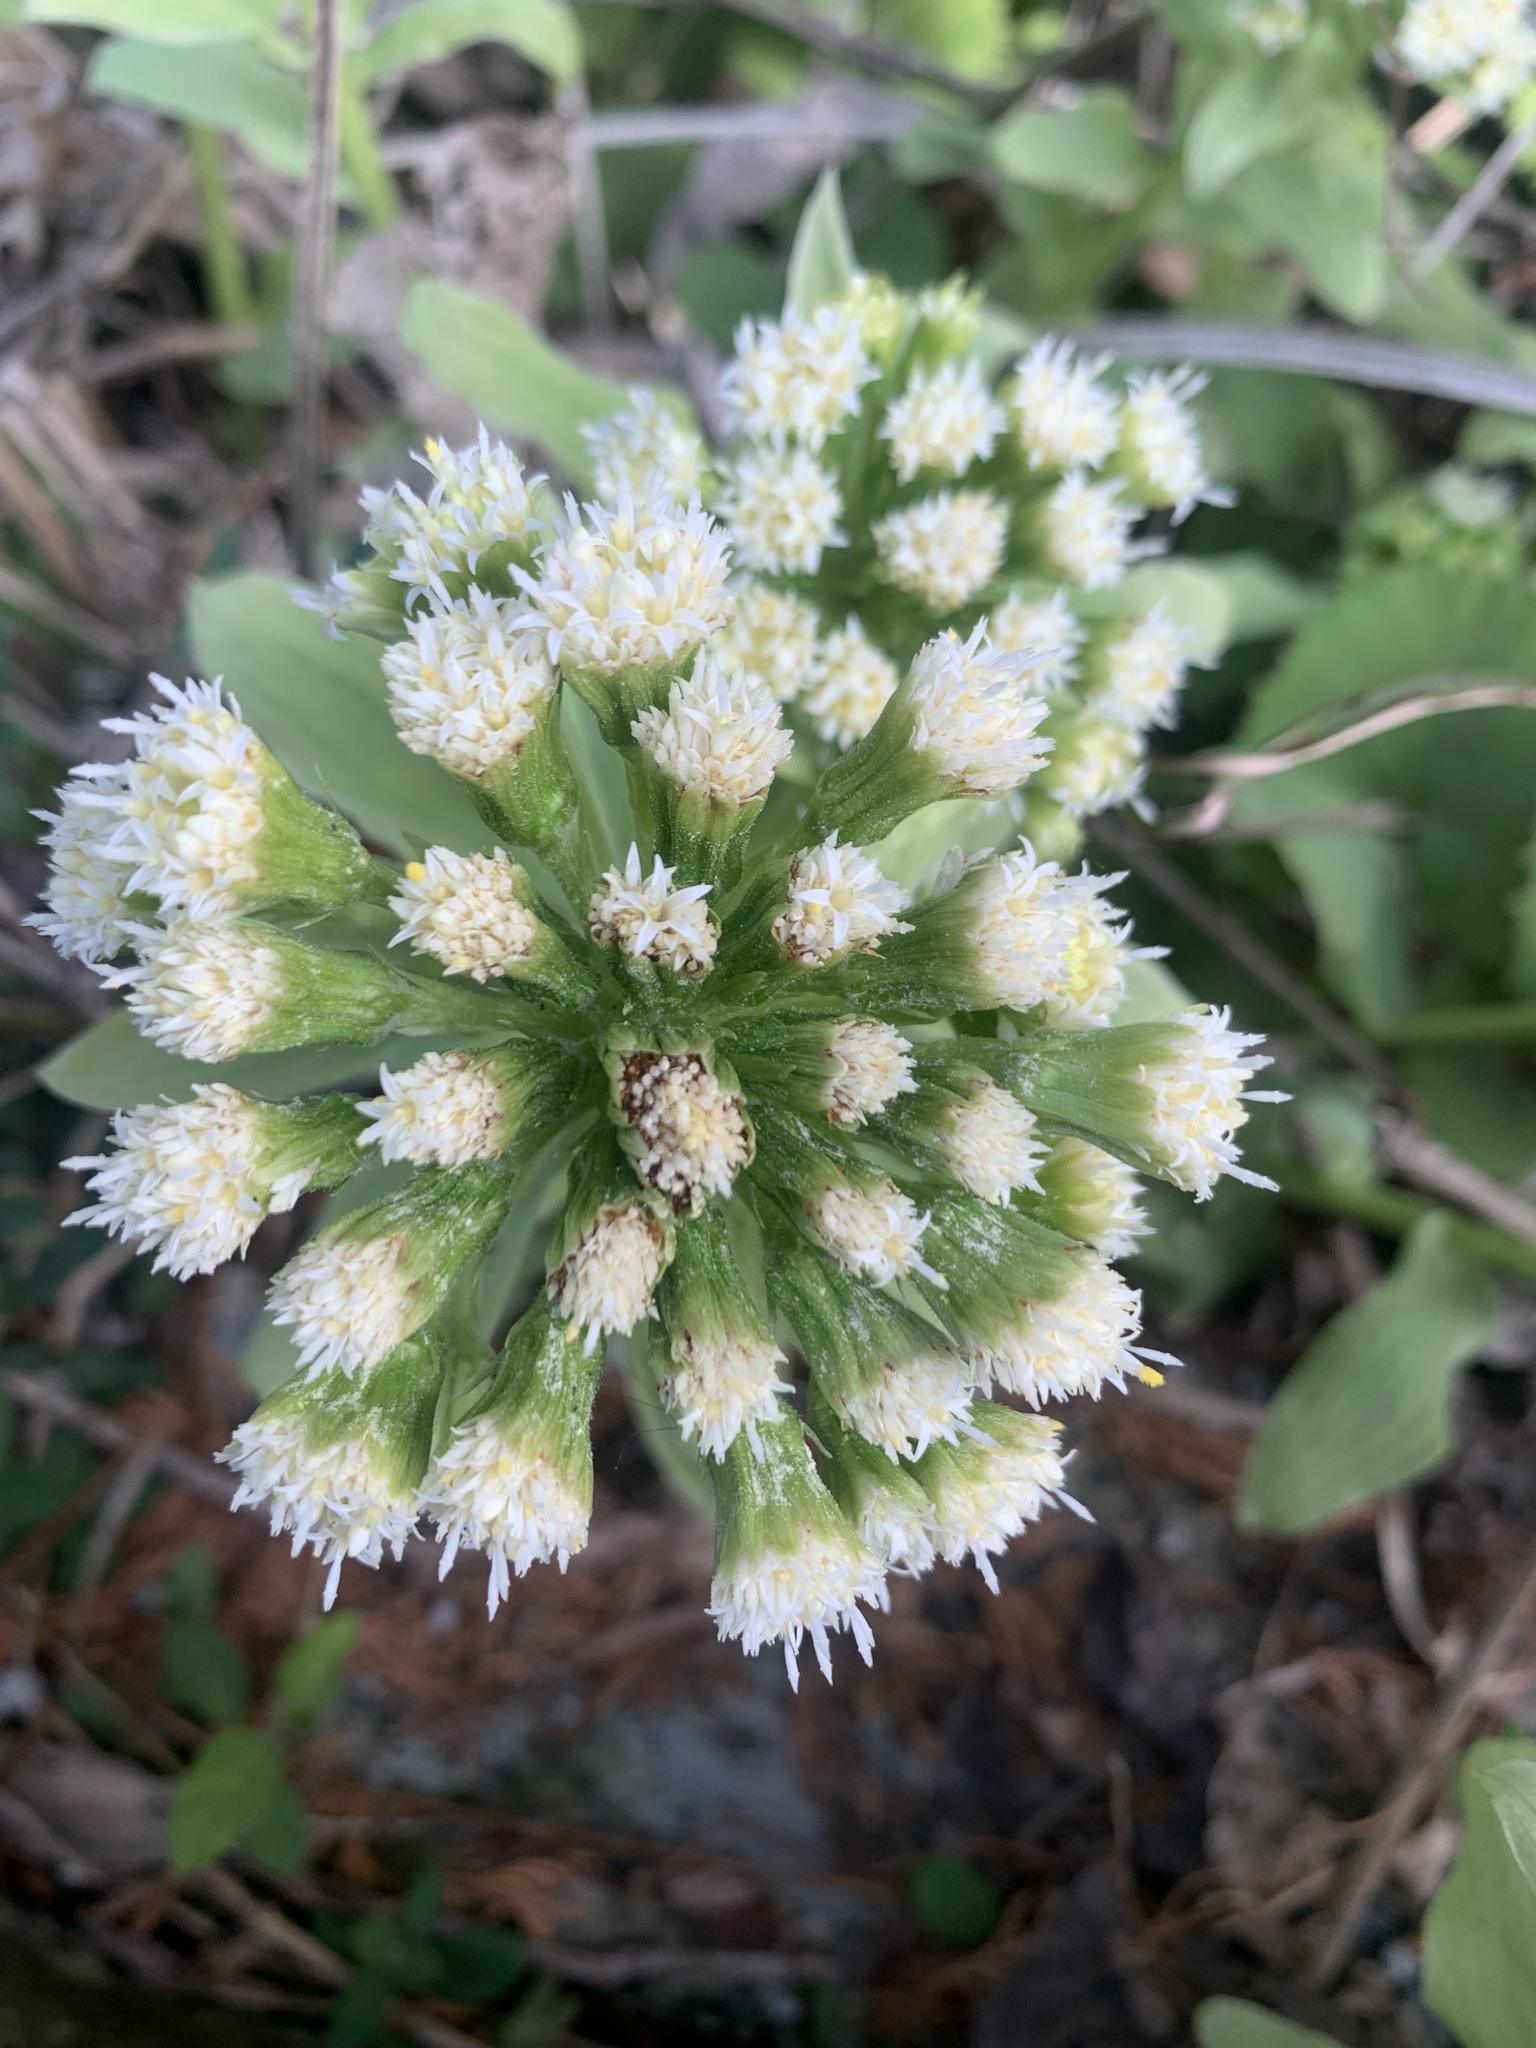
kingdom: Plantae
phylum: Tracheophyta
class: Magnoliopsida
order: Asterales
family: Asteraceae
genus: Petasites
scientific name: Petasites japonicus
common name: Giant butterbur
